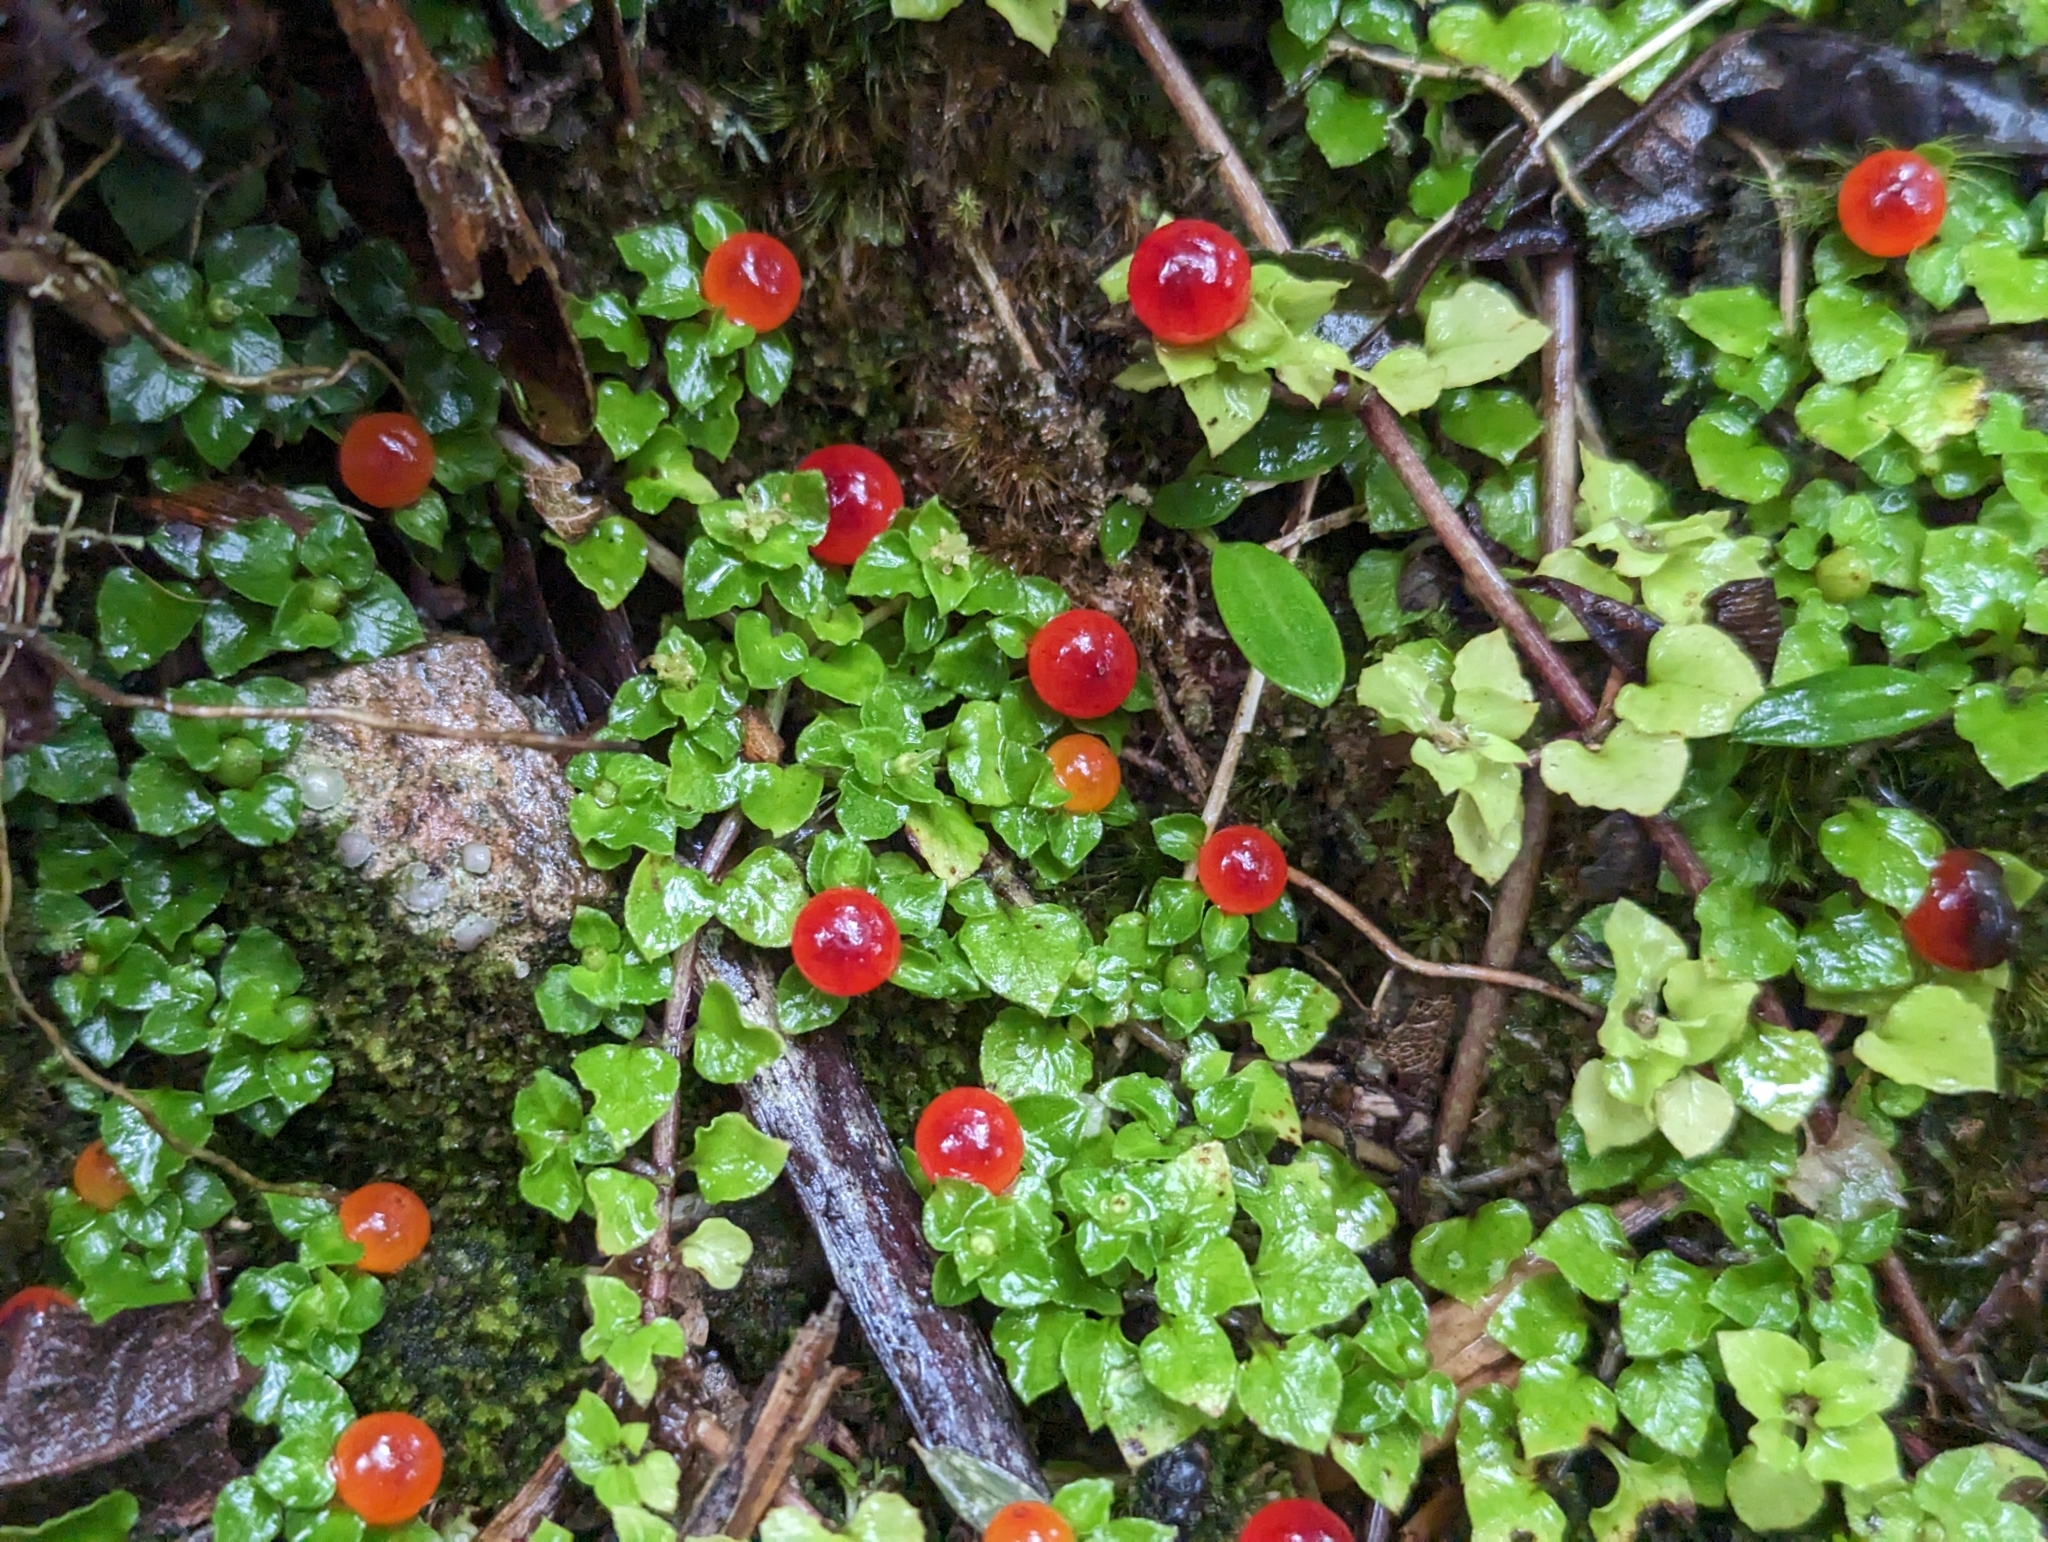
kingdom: Plantae
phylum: Tracheophyta
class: Magnoliopsida
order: Gentianales
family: Rubiaceae
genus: Nertera
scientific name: Nertera granadensis
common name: Beadplant
